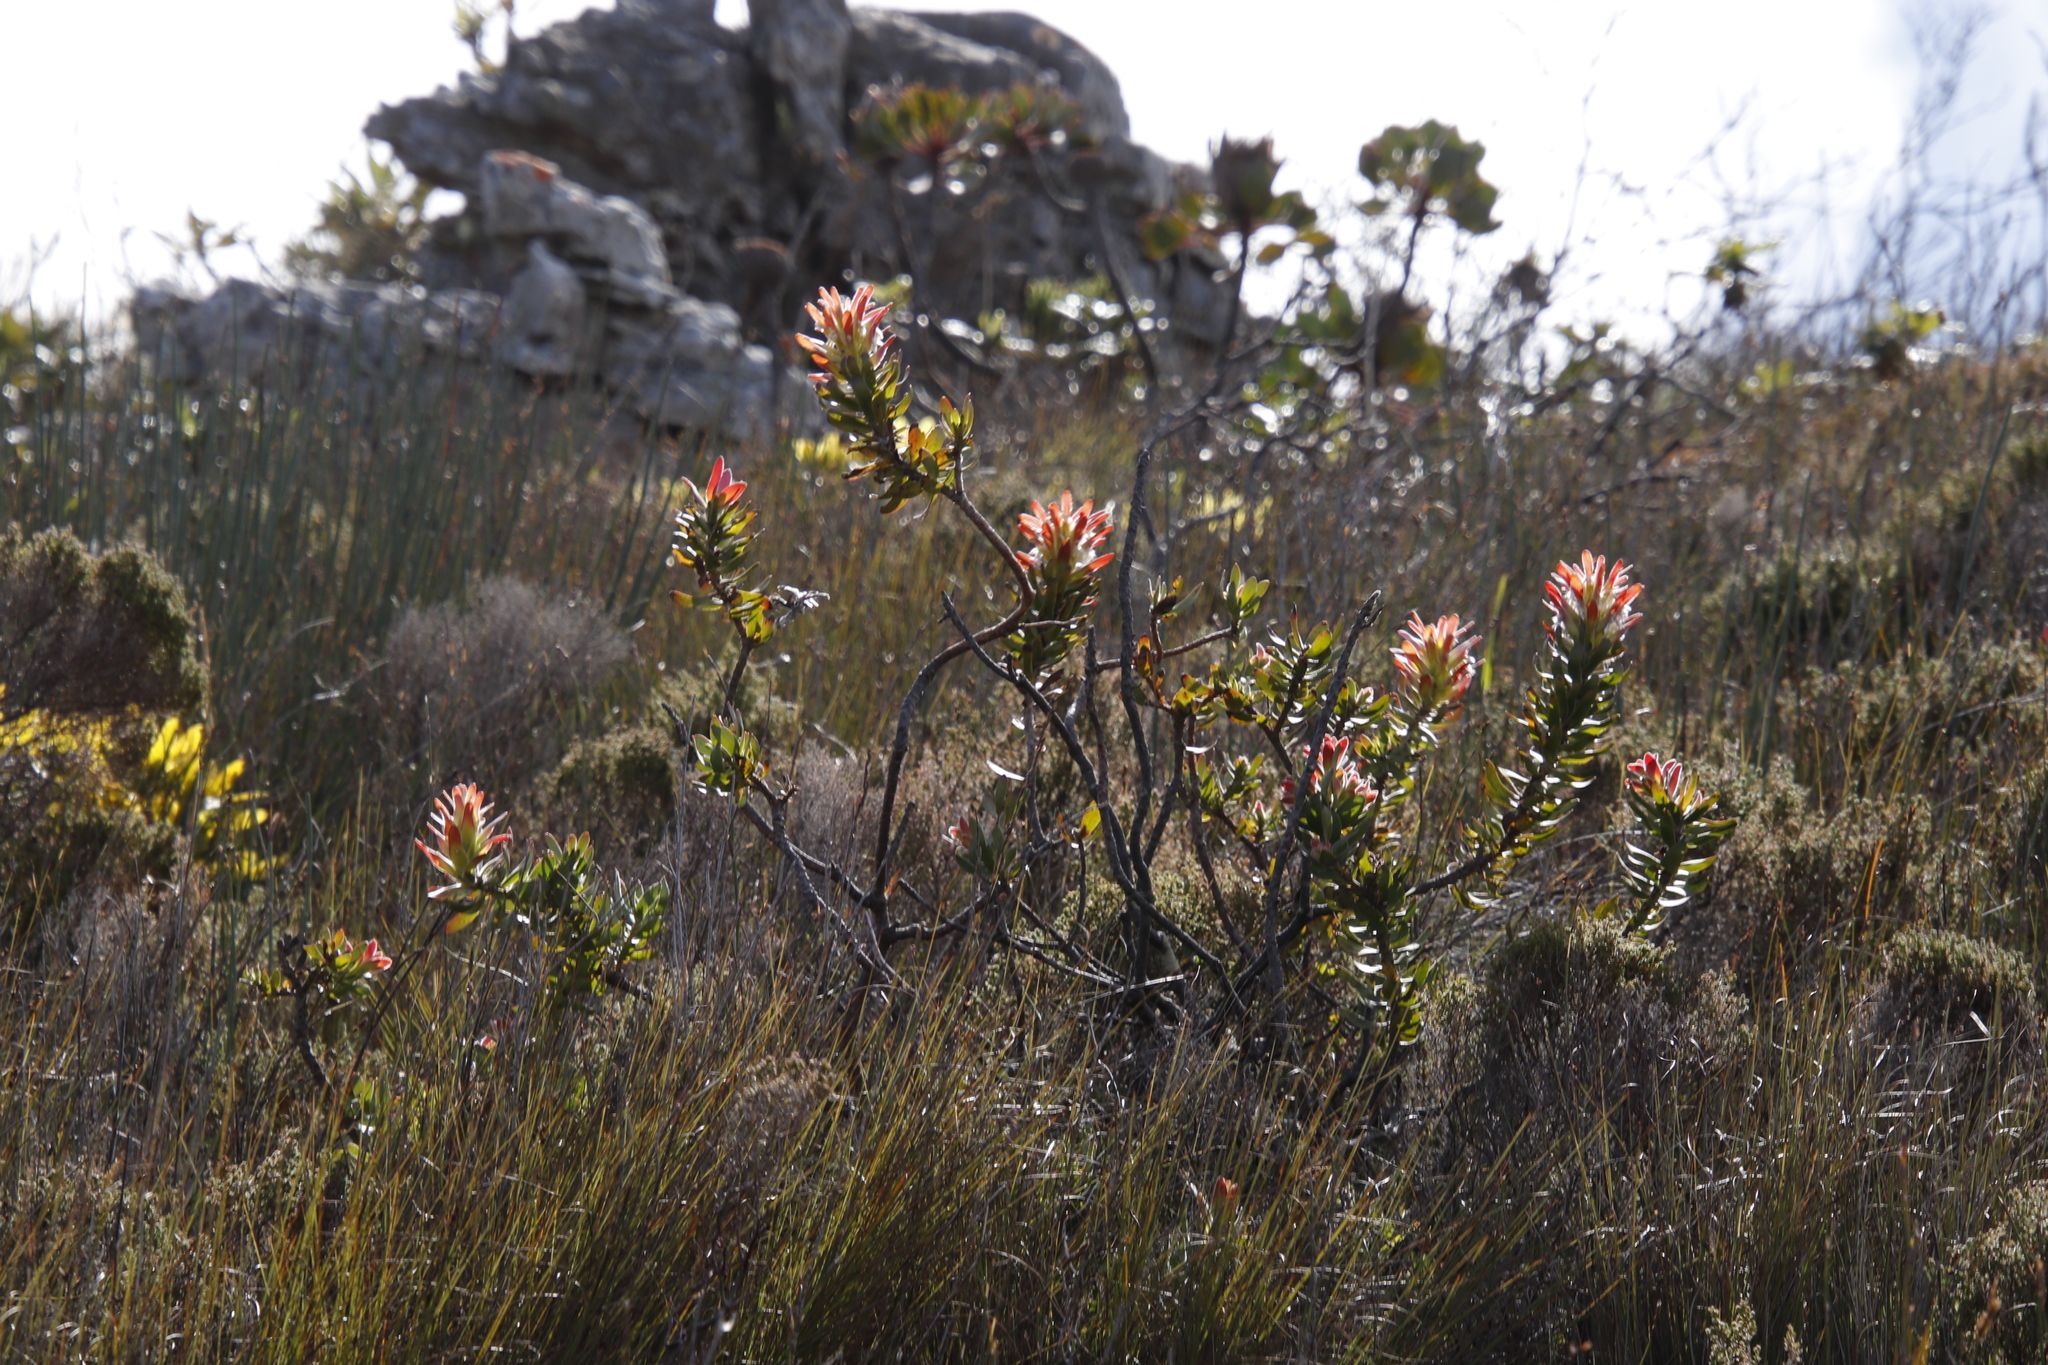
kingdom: Plantae
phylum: Tracheophyta
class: Magnoliopsida
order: Proteales
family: Proteaceae
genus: Mimetes
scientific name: Mimetes cucullatus
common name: Common pagoda
